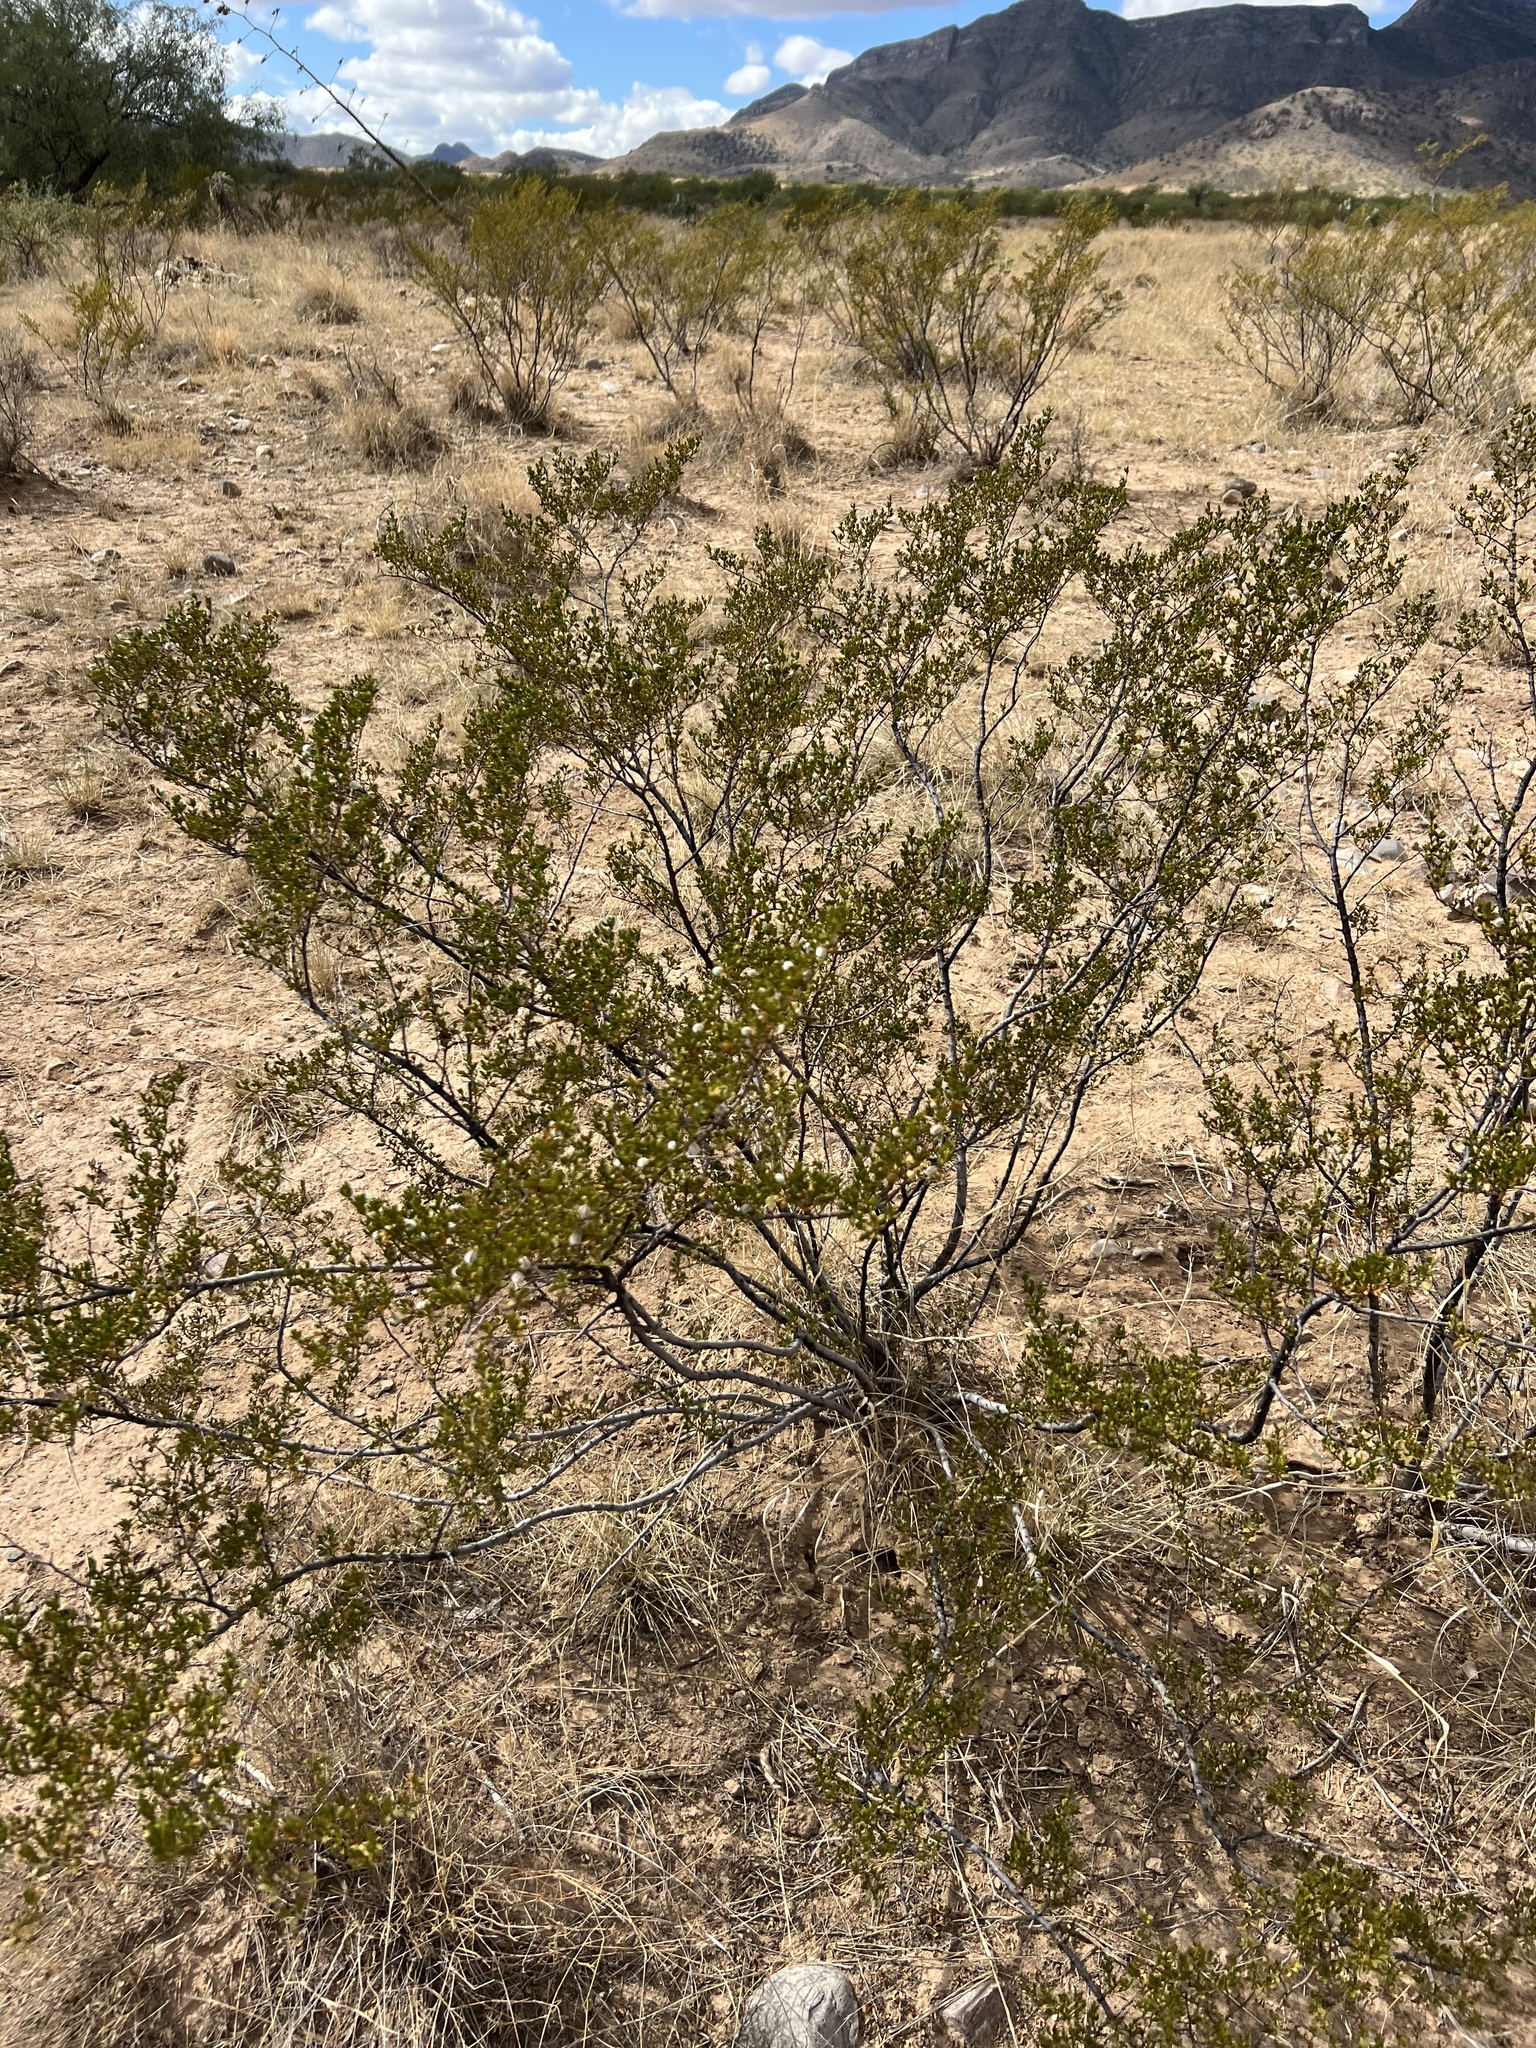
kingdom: Plantae
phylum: Tracheophyta
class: Magnoliopsida
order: Zygophyllales
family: Zygophyllaceae
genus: Larrea
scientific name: Larrea tridentata
